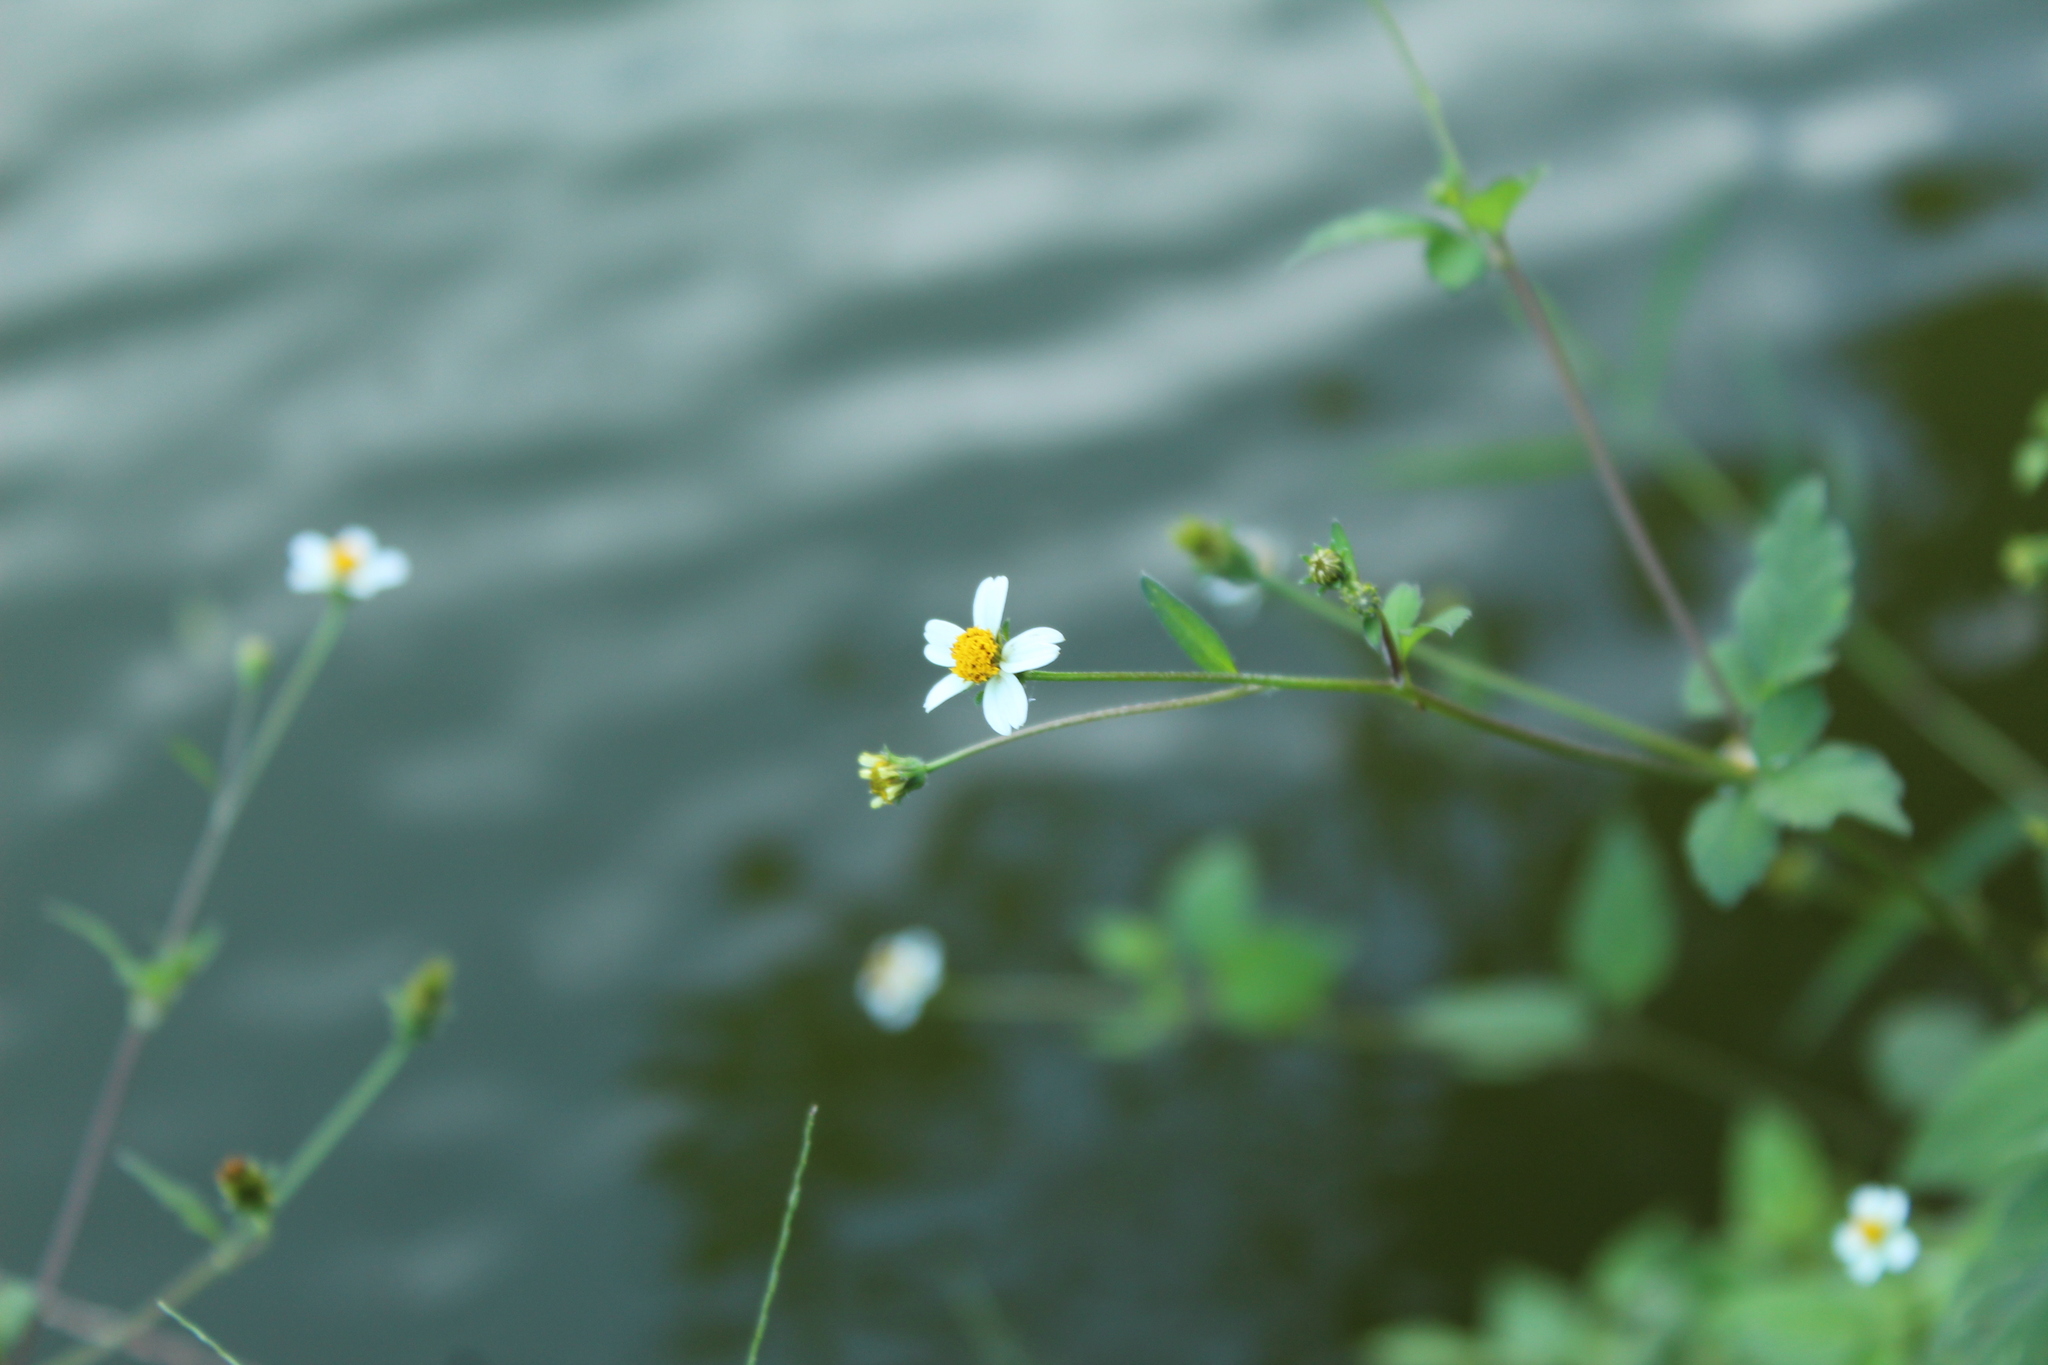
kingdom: Plantae
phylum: Tracheophyta
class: Magnoliopsida
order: Asterales
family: Asteraceae
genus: Bidens
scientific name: Bidens alba
